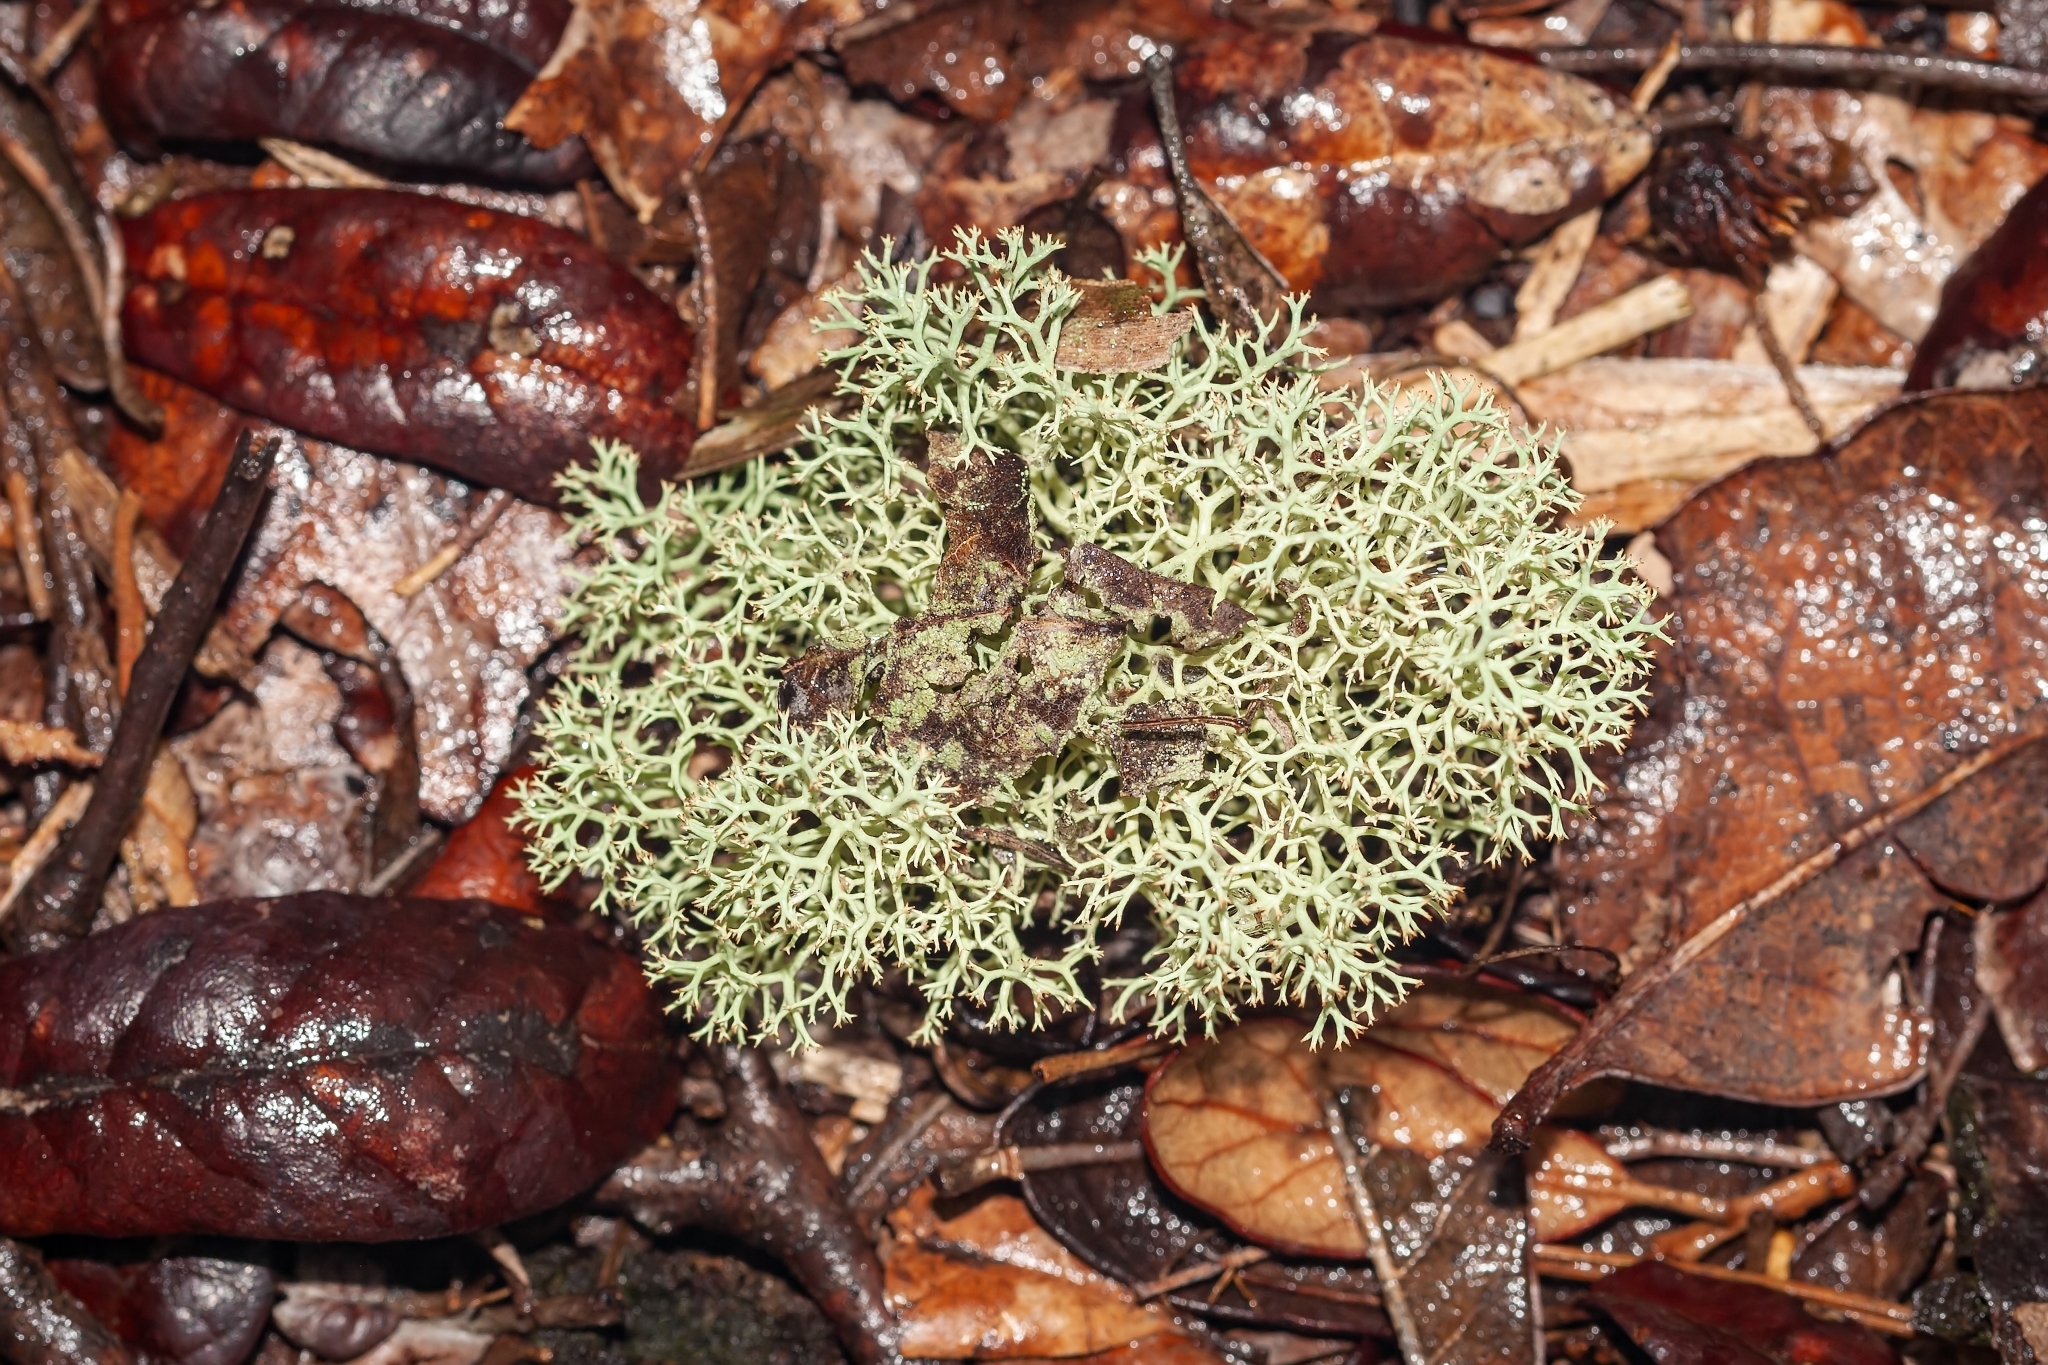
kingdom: Fungi
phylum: Ascomycota
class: Lecanoromycetes
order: Lecanorales
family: Cladoniaceae
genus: Cladonia
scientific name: Cladonia subtenuis
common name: Dixie reindeer lichen
